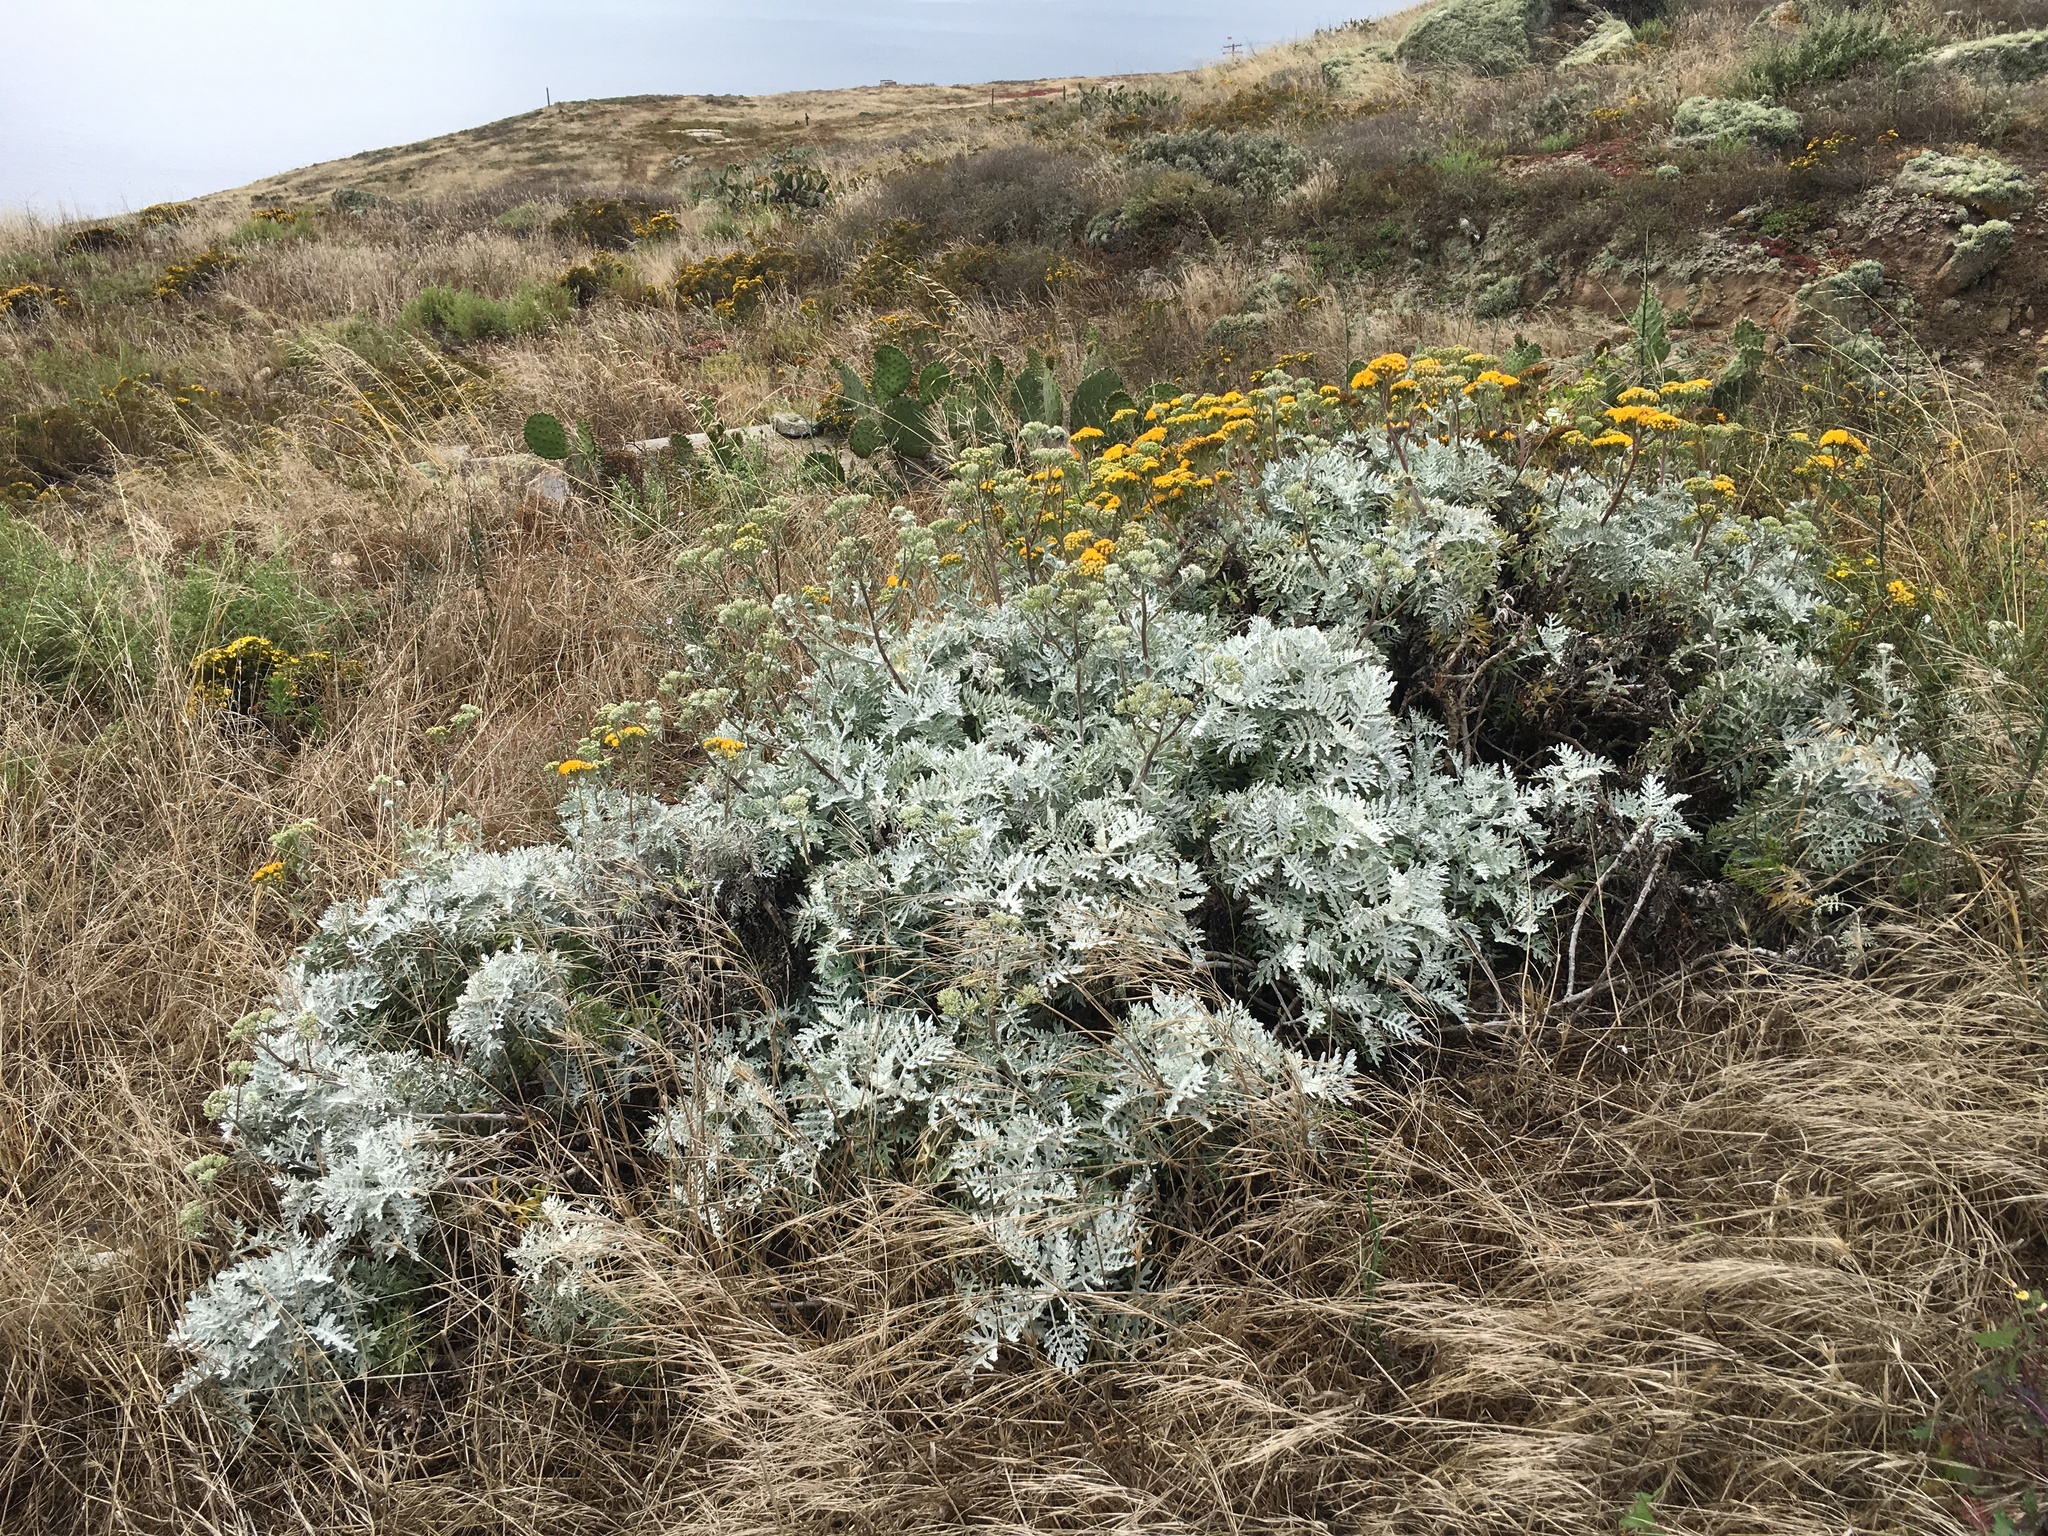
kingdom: Plantae
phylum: Tracheophyta
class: Magnoliopsida
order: Asterales
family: Asteraceae
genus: Constancea
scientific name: Constancea nevinii
